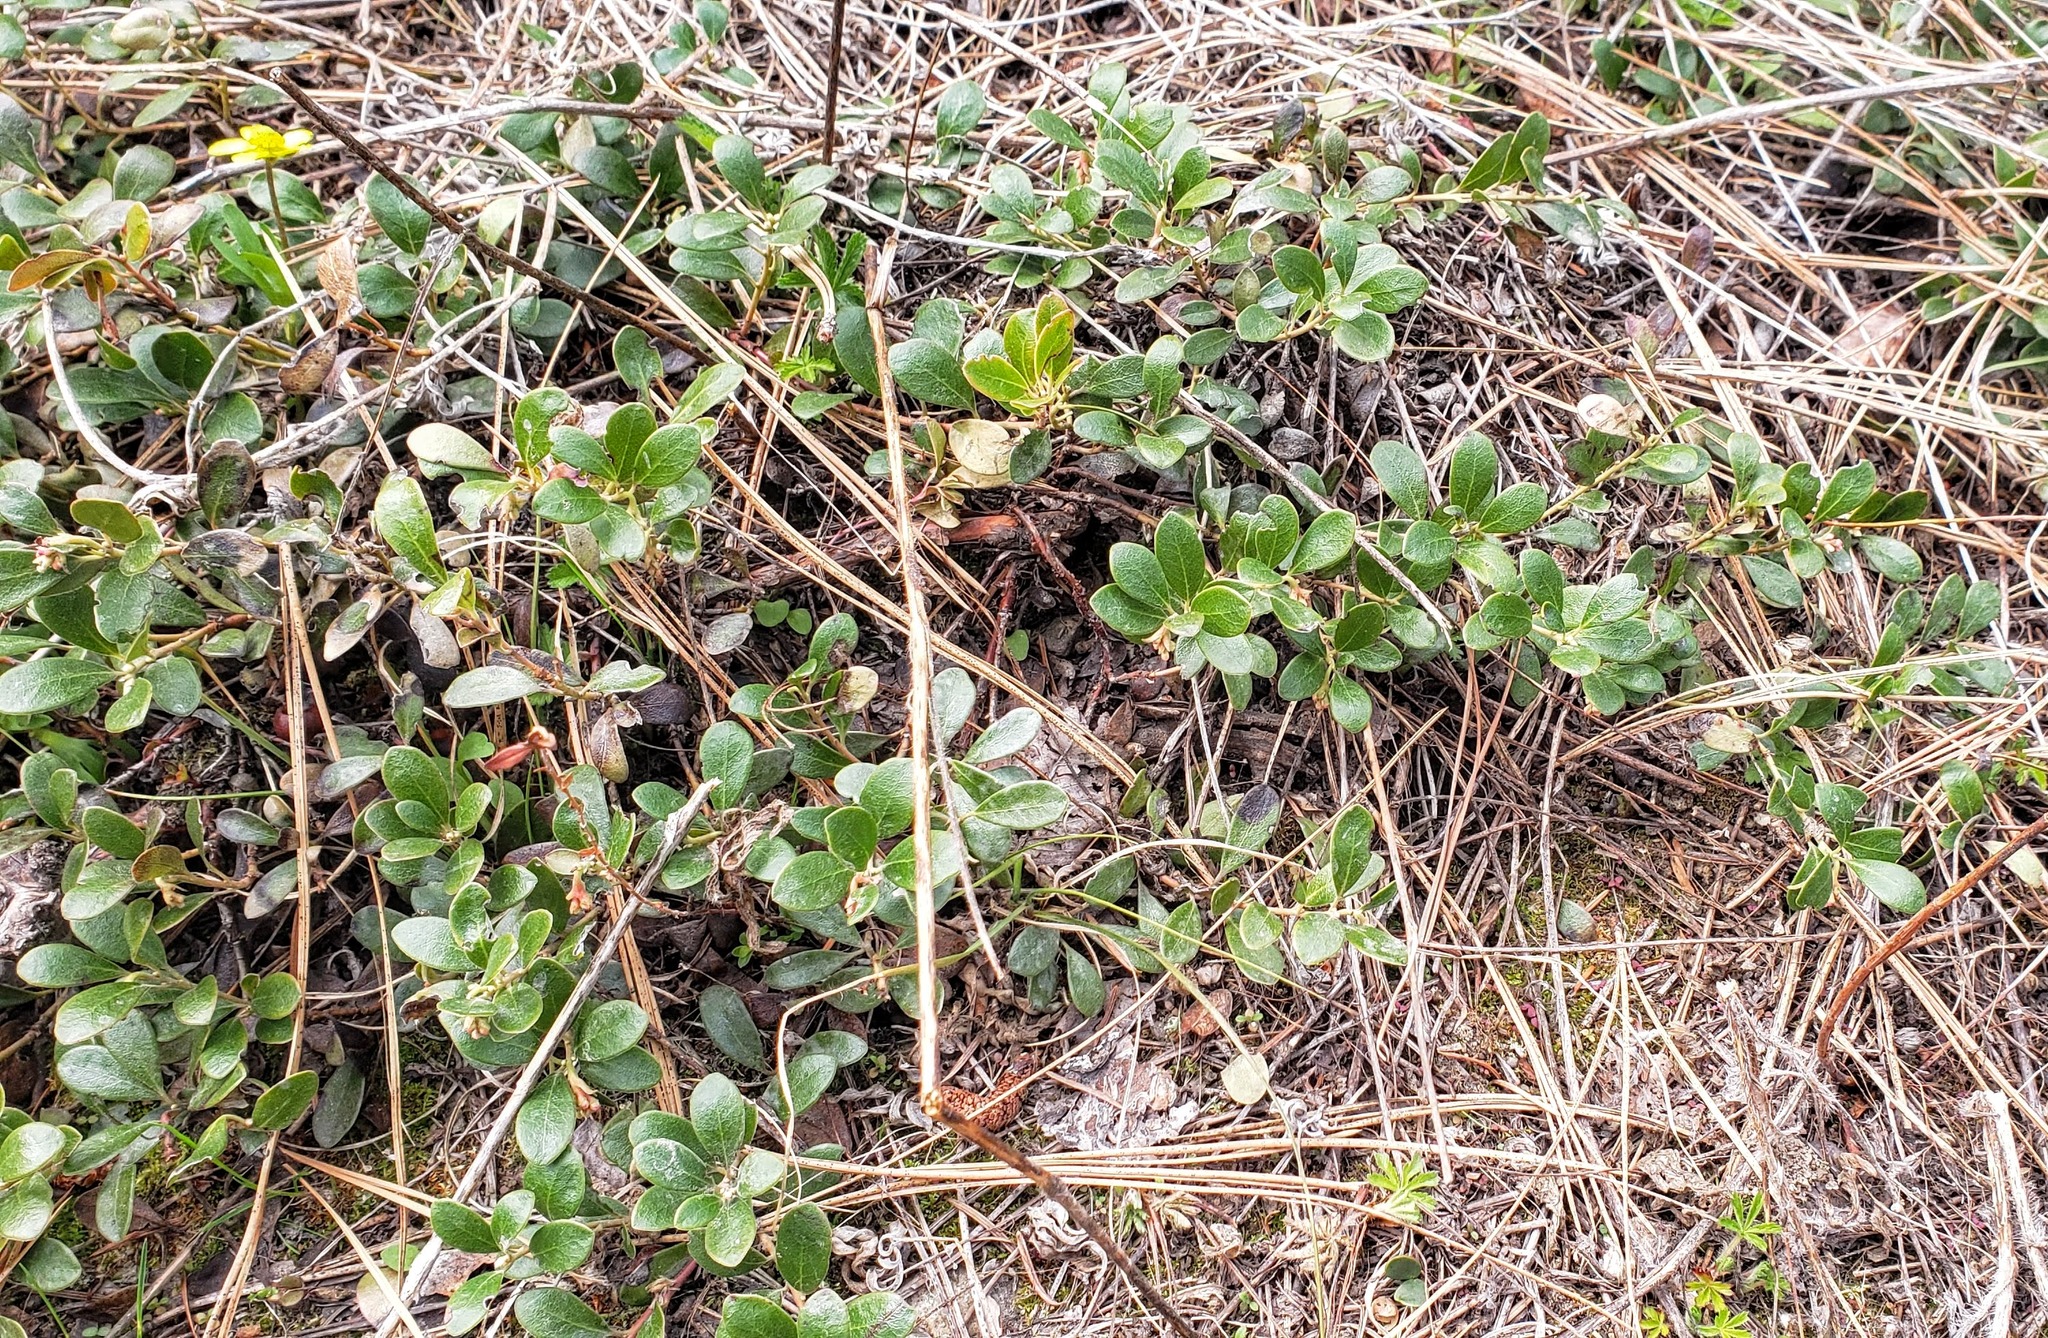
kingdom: Plantae
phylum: Tracheophyta
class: Magnoliopsida
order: Ericales
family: Ericaceae
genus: Arctostaphylos
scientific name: Arctostaphylos uva-ursi
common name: Bearberry
